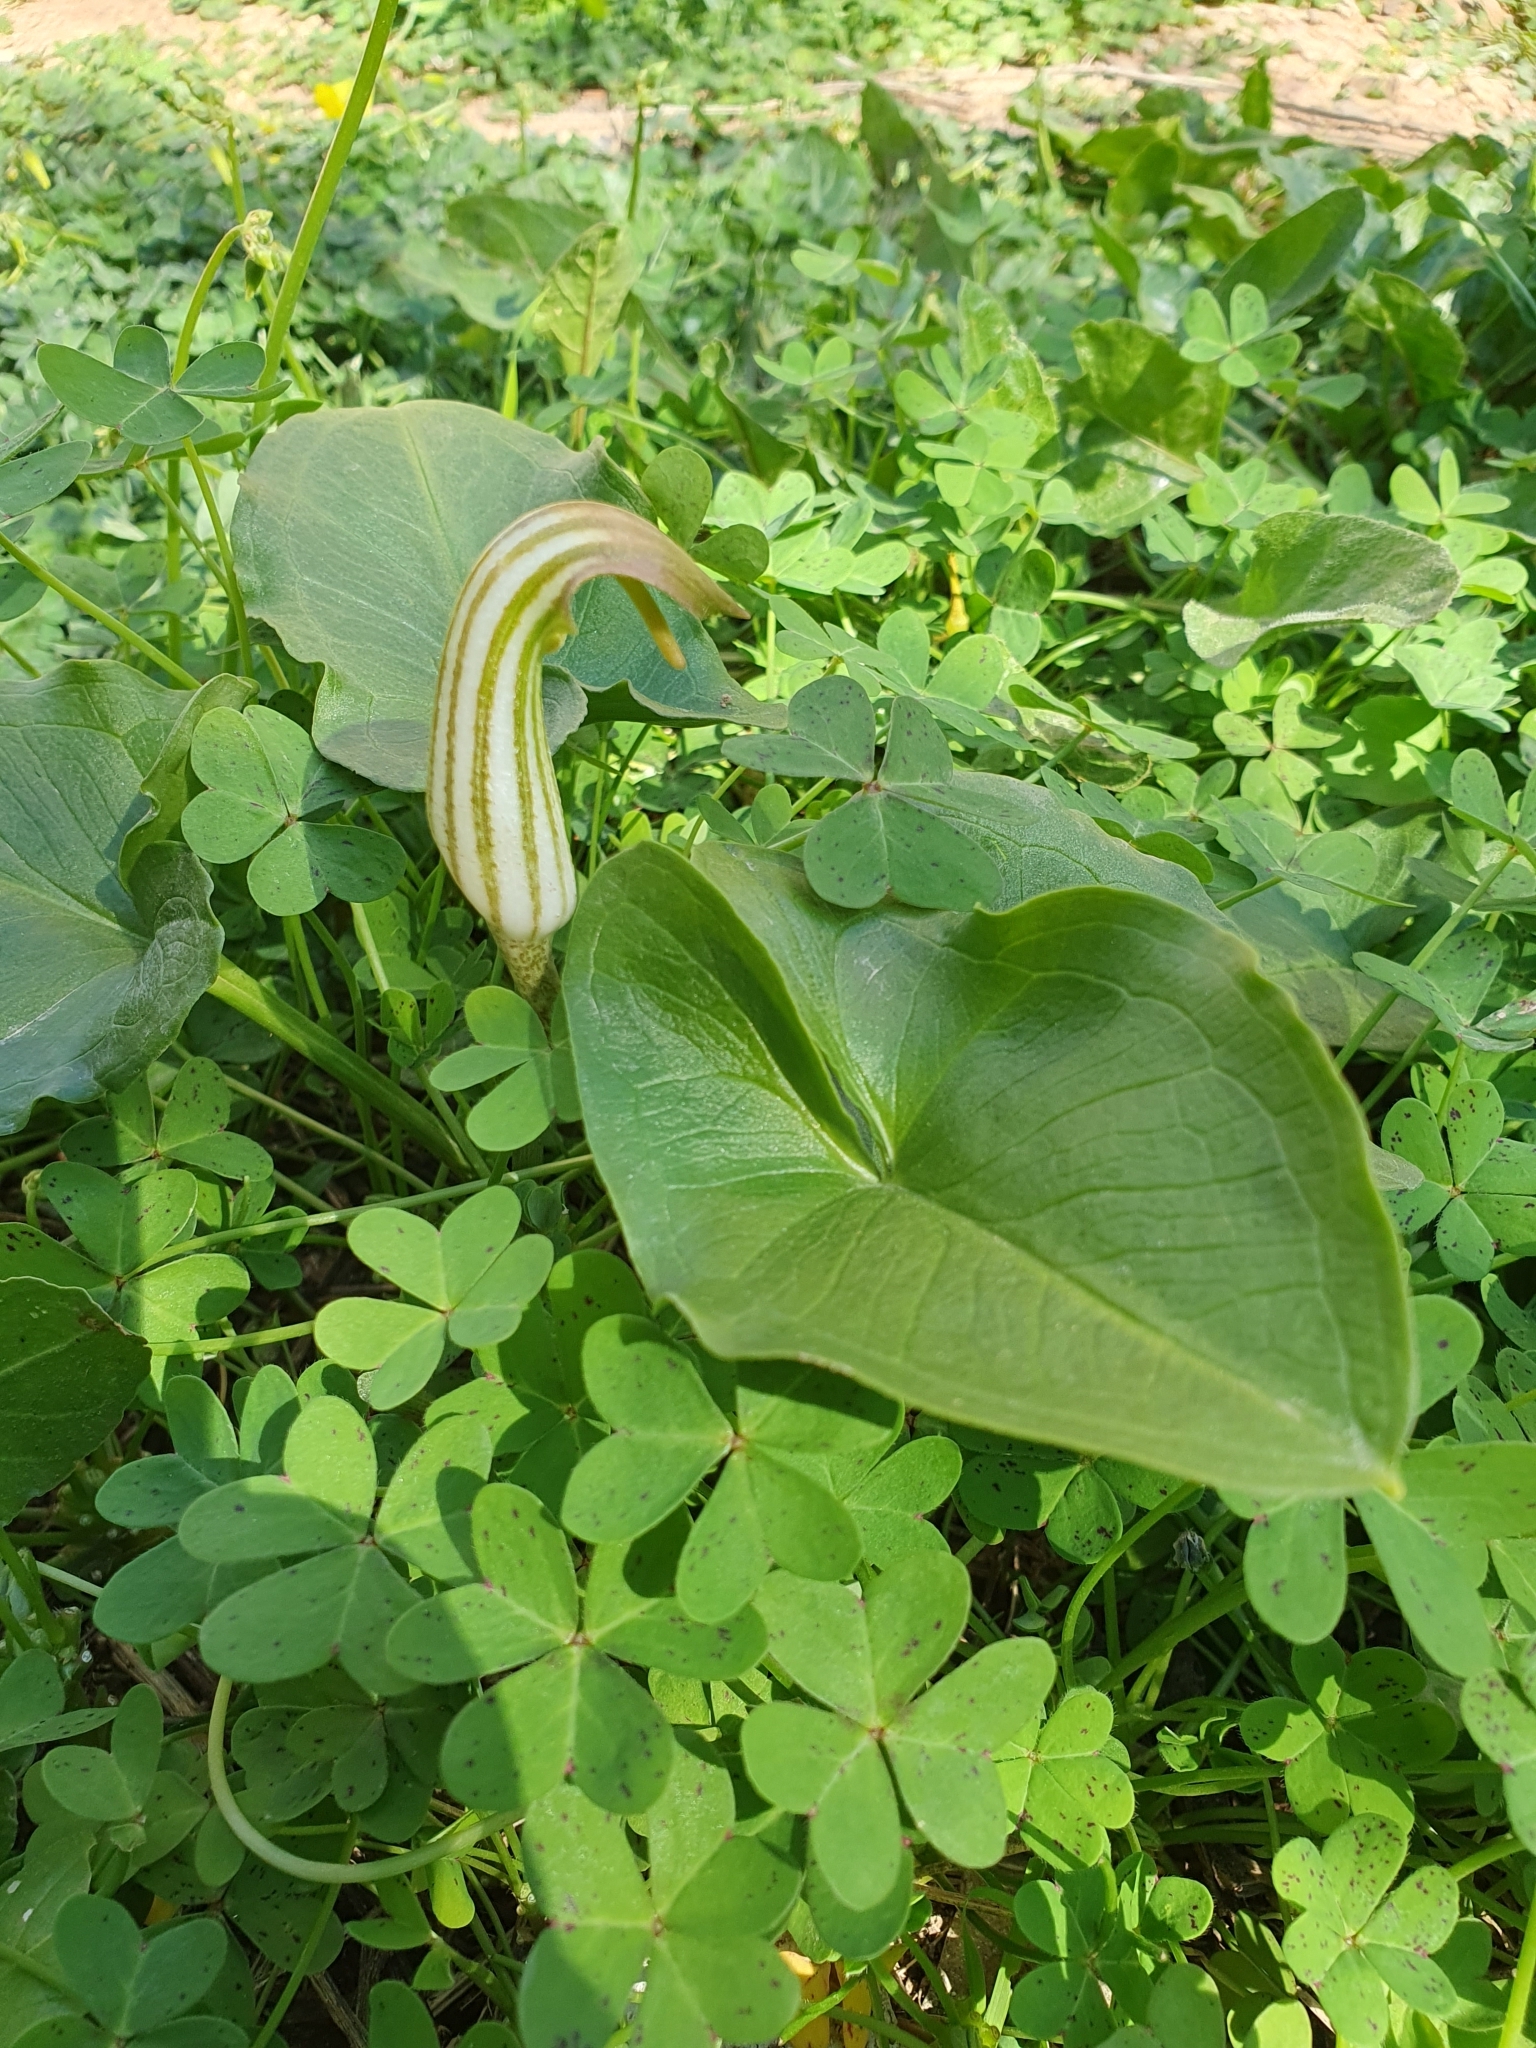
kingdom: Plantae
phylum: Tracheophyta
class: Liliopsida
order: Alismatales
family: Araceae
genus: Arisarum
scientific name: Arisarum vulgare
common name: Common arisarum
